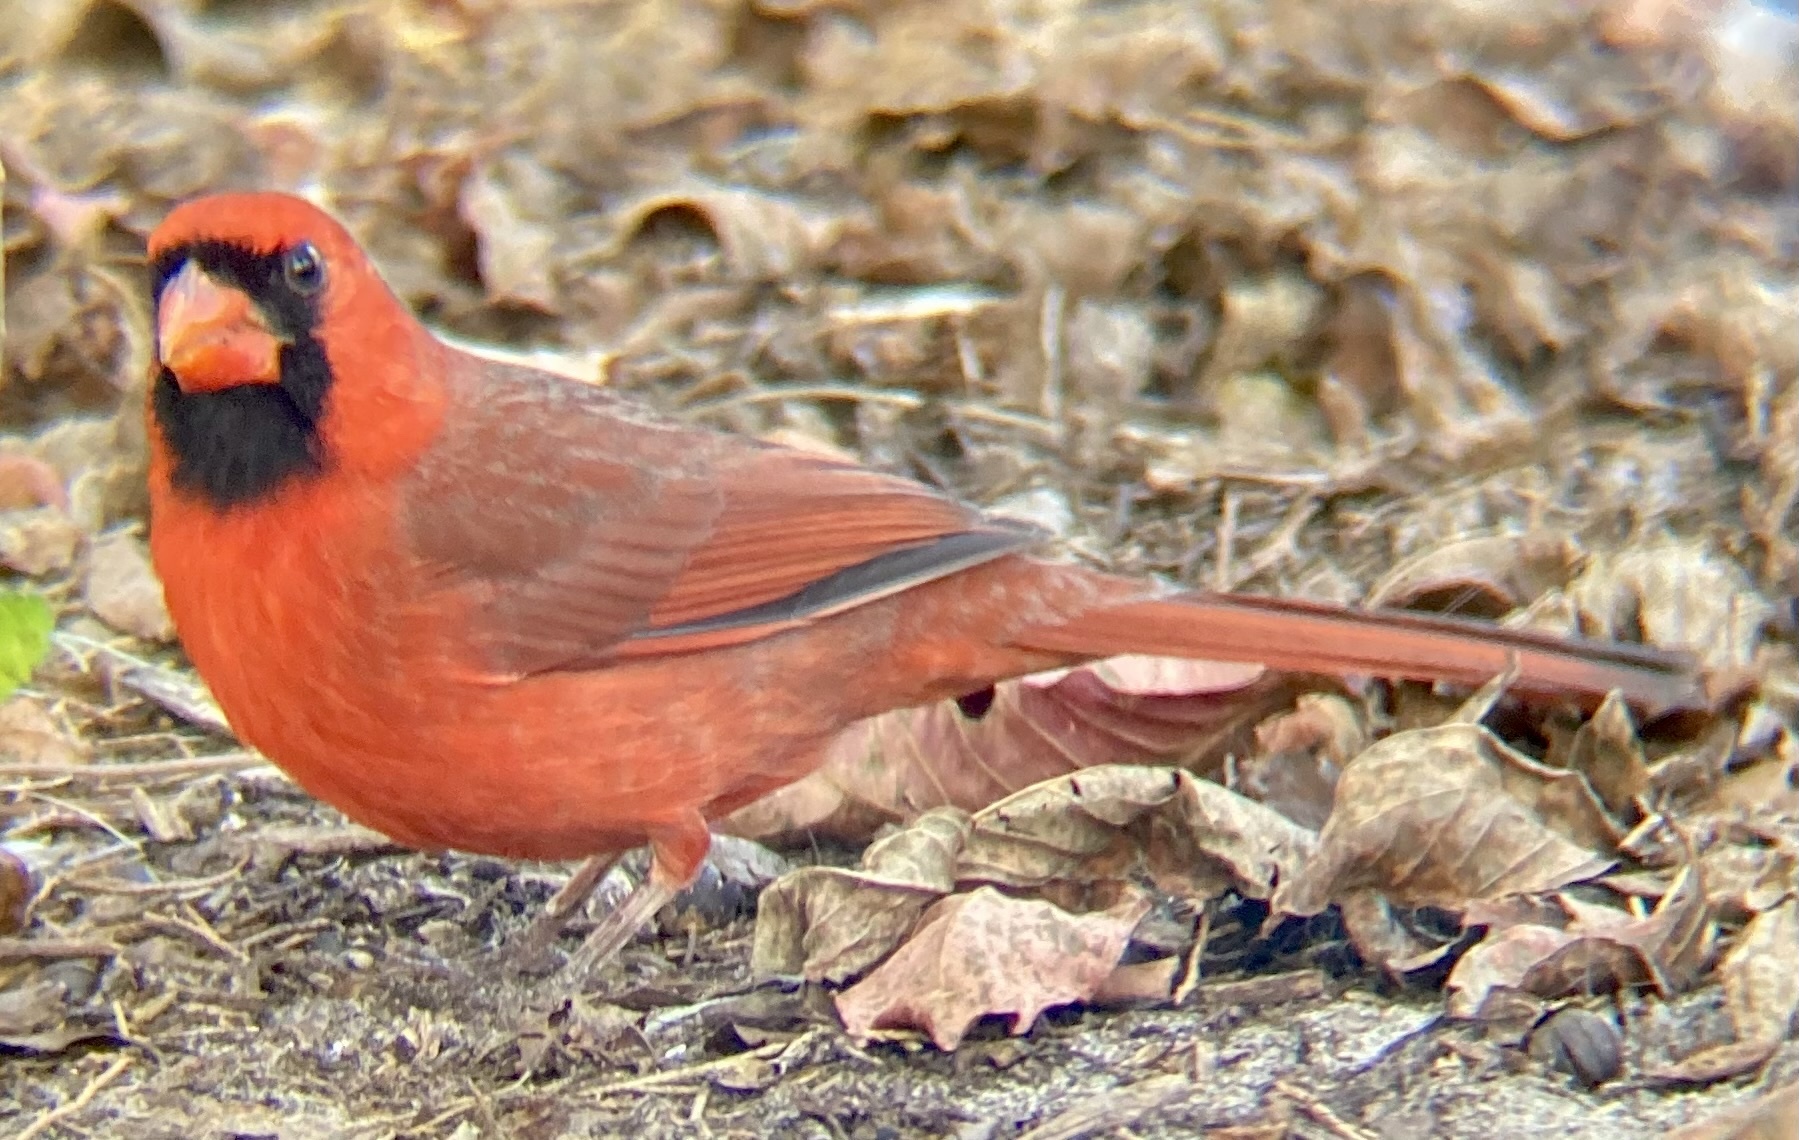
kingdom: Animalia
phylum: Chordata
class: Aves
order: Passeriformes
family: Cardinalidae
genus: Cardinalis
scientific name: Cardinalis cardinalis
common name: Northern cardinal
